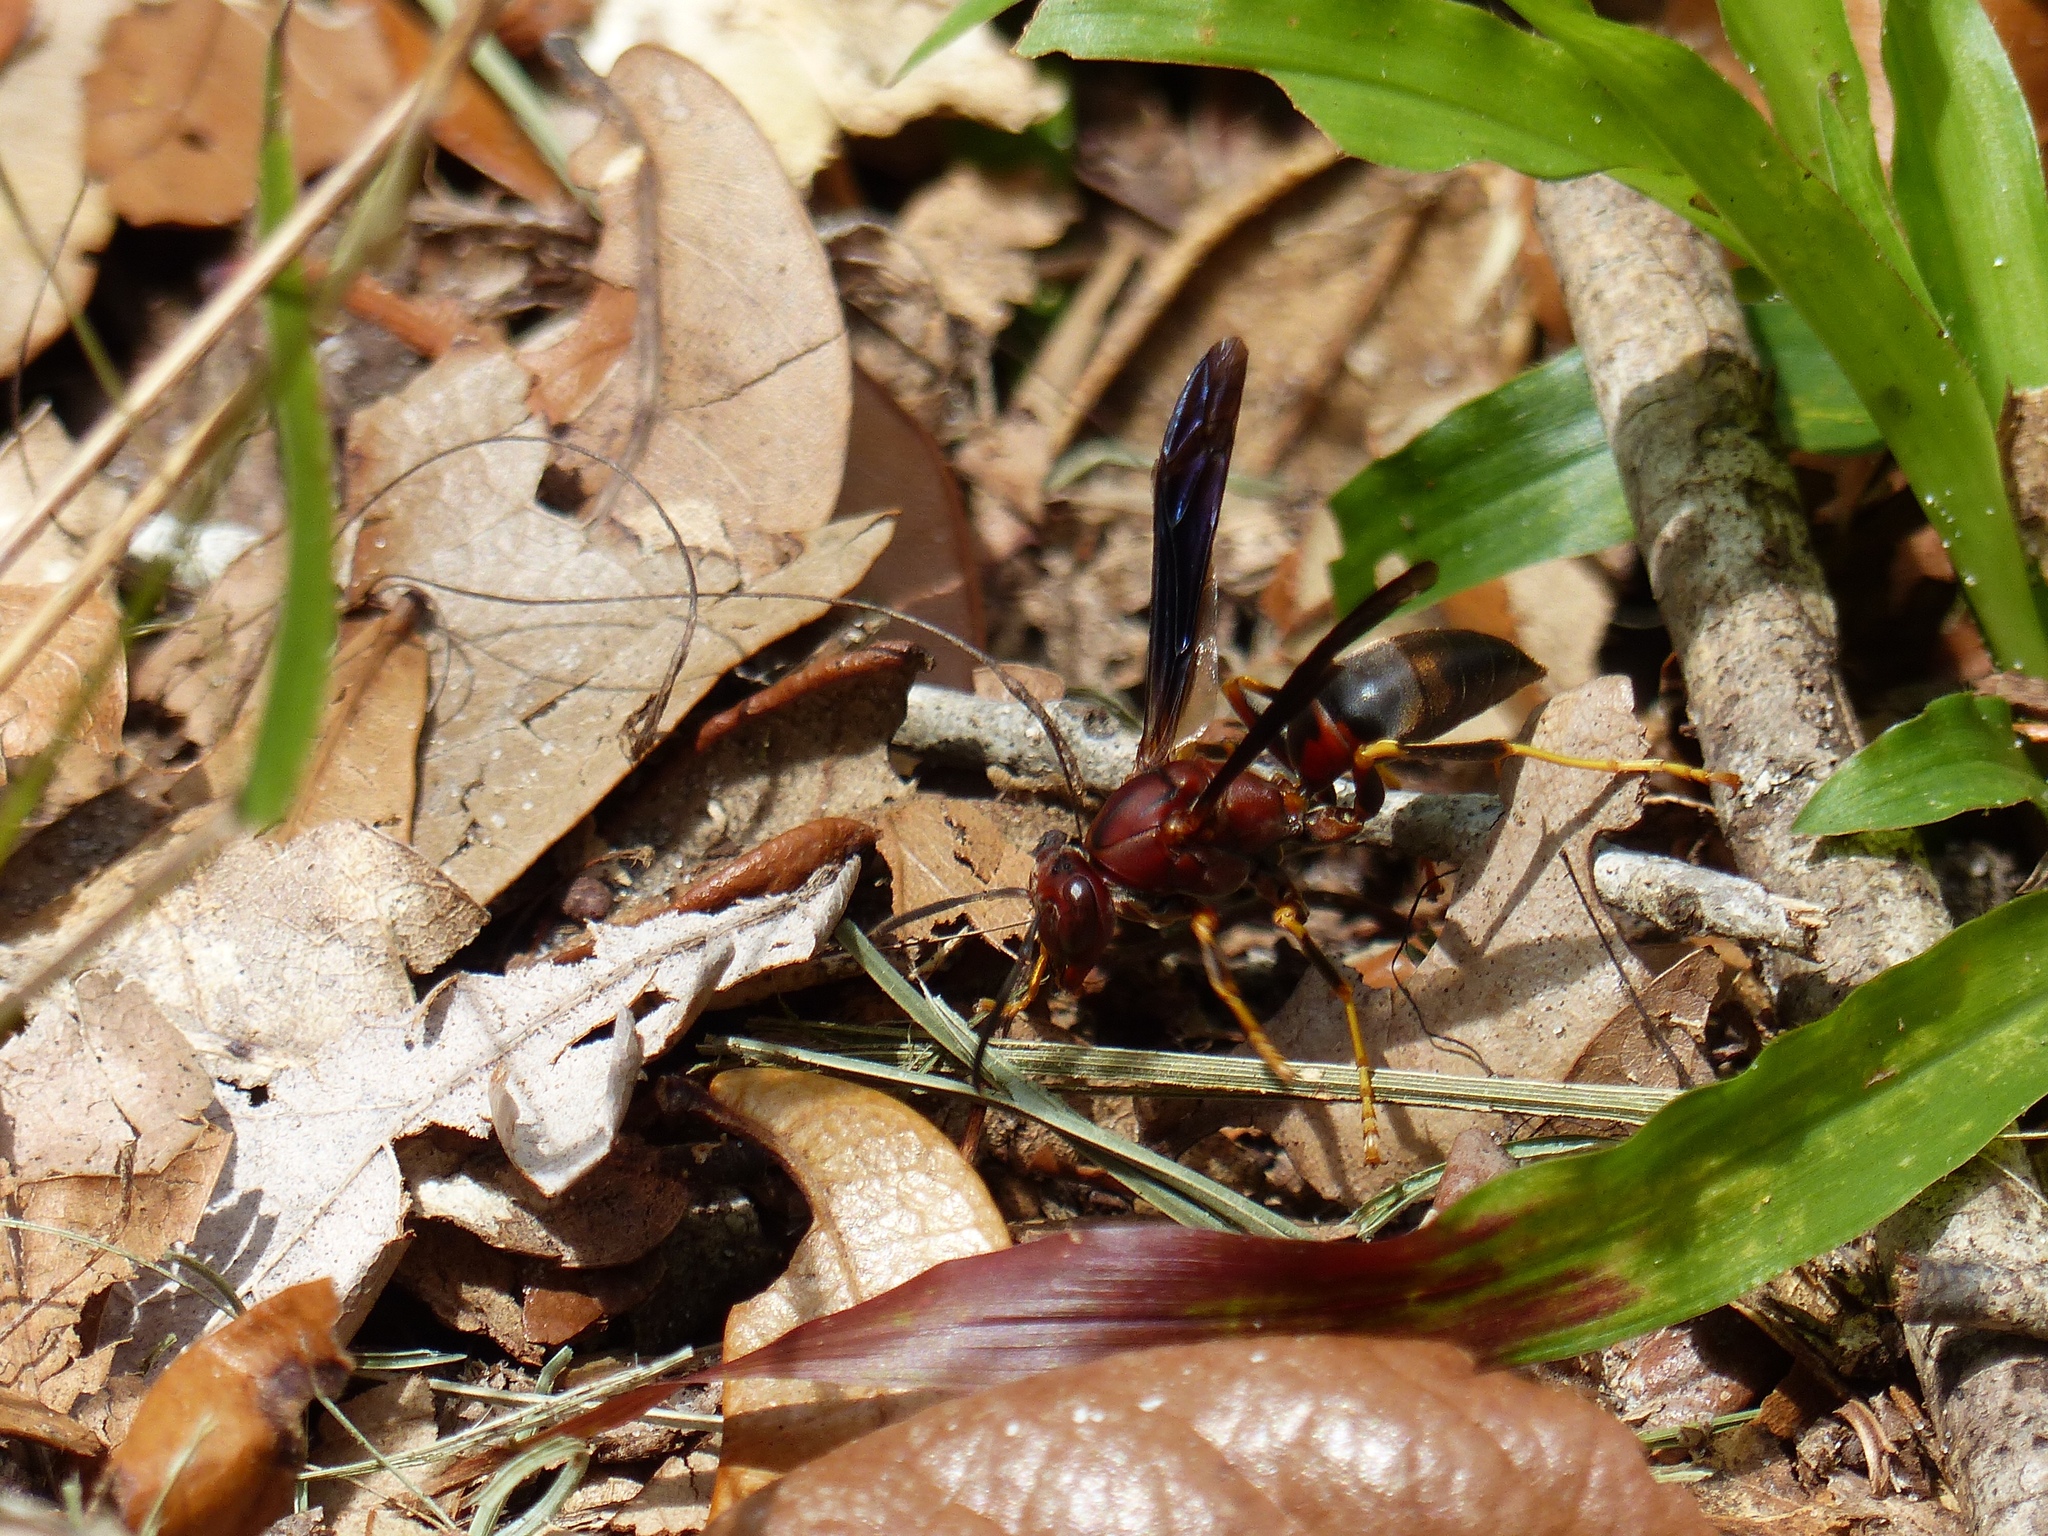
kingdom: Animalia
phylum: Arthropoda
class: Insecta
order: Hymenoptera
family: Eumenidae
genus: Polistes
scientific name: Polistes metricus
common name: Metric paper wasp
